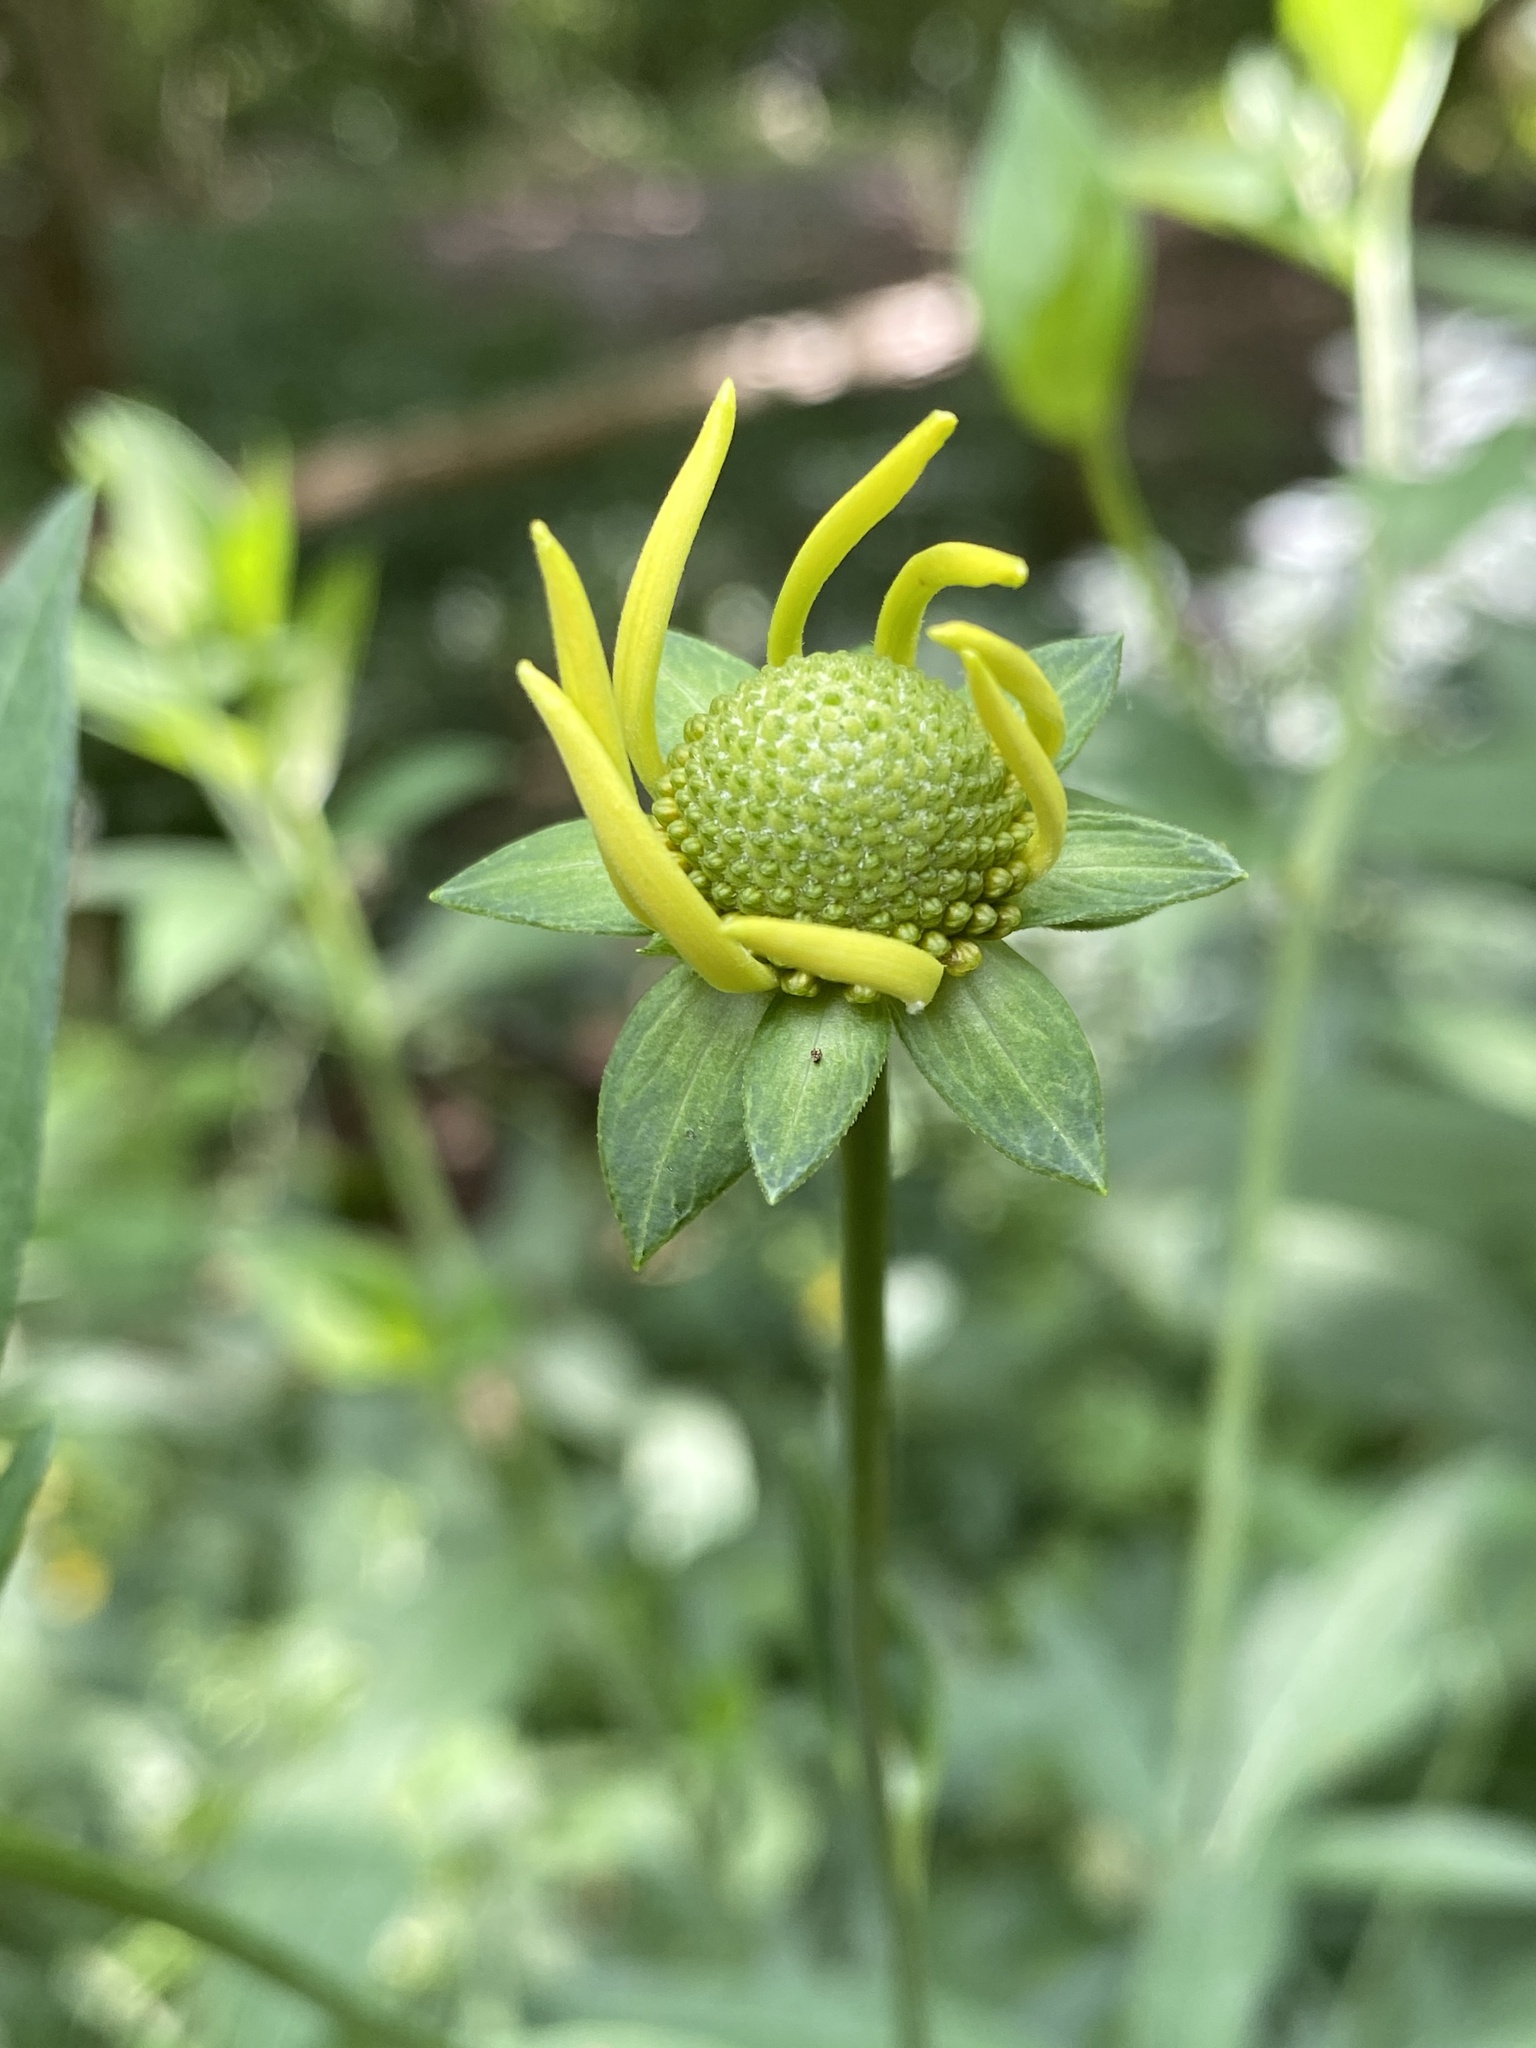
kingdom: Plantae
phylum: Tracheophyta
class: Magnoliopsida
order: Asterales
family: Asteraceae
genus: Rudbeckia
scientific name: Rudbeckia laciniata
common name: Coneflower
